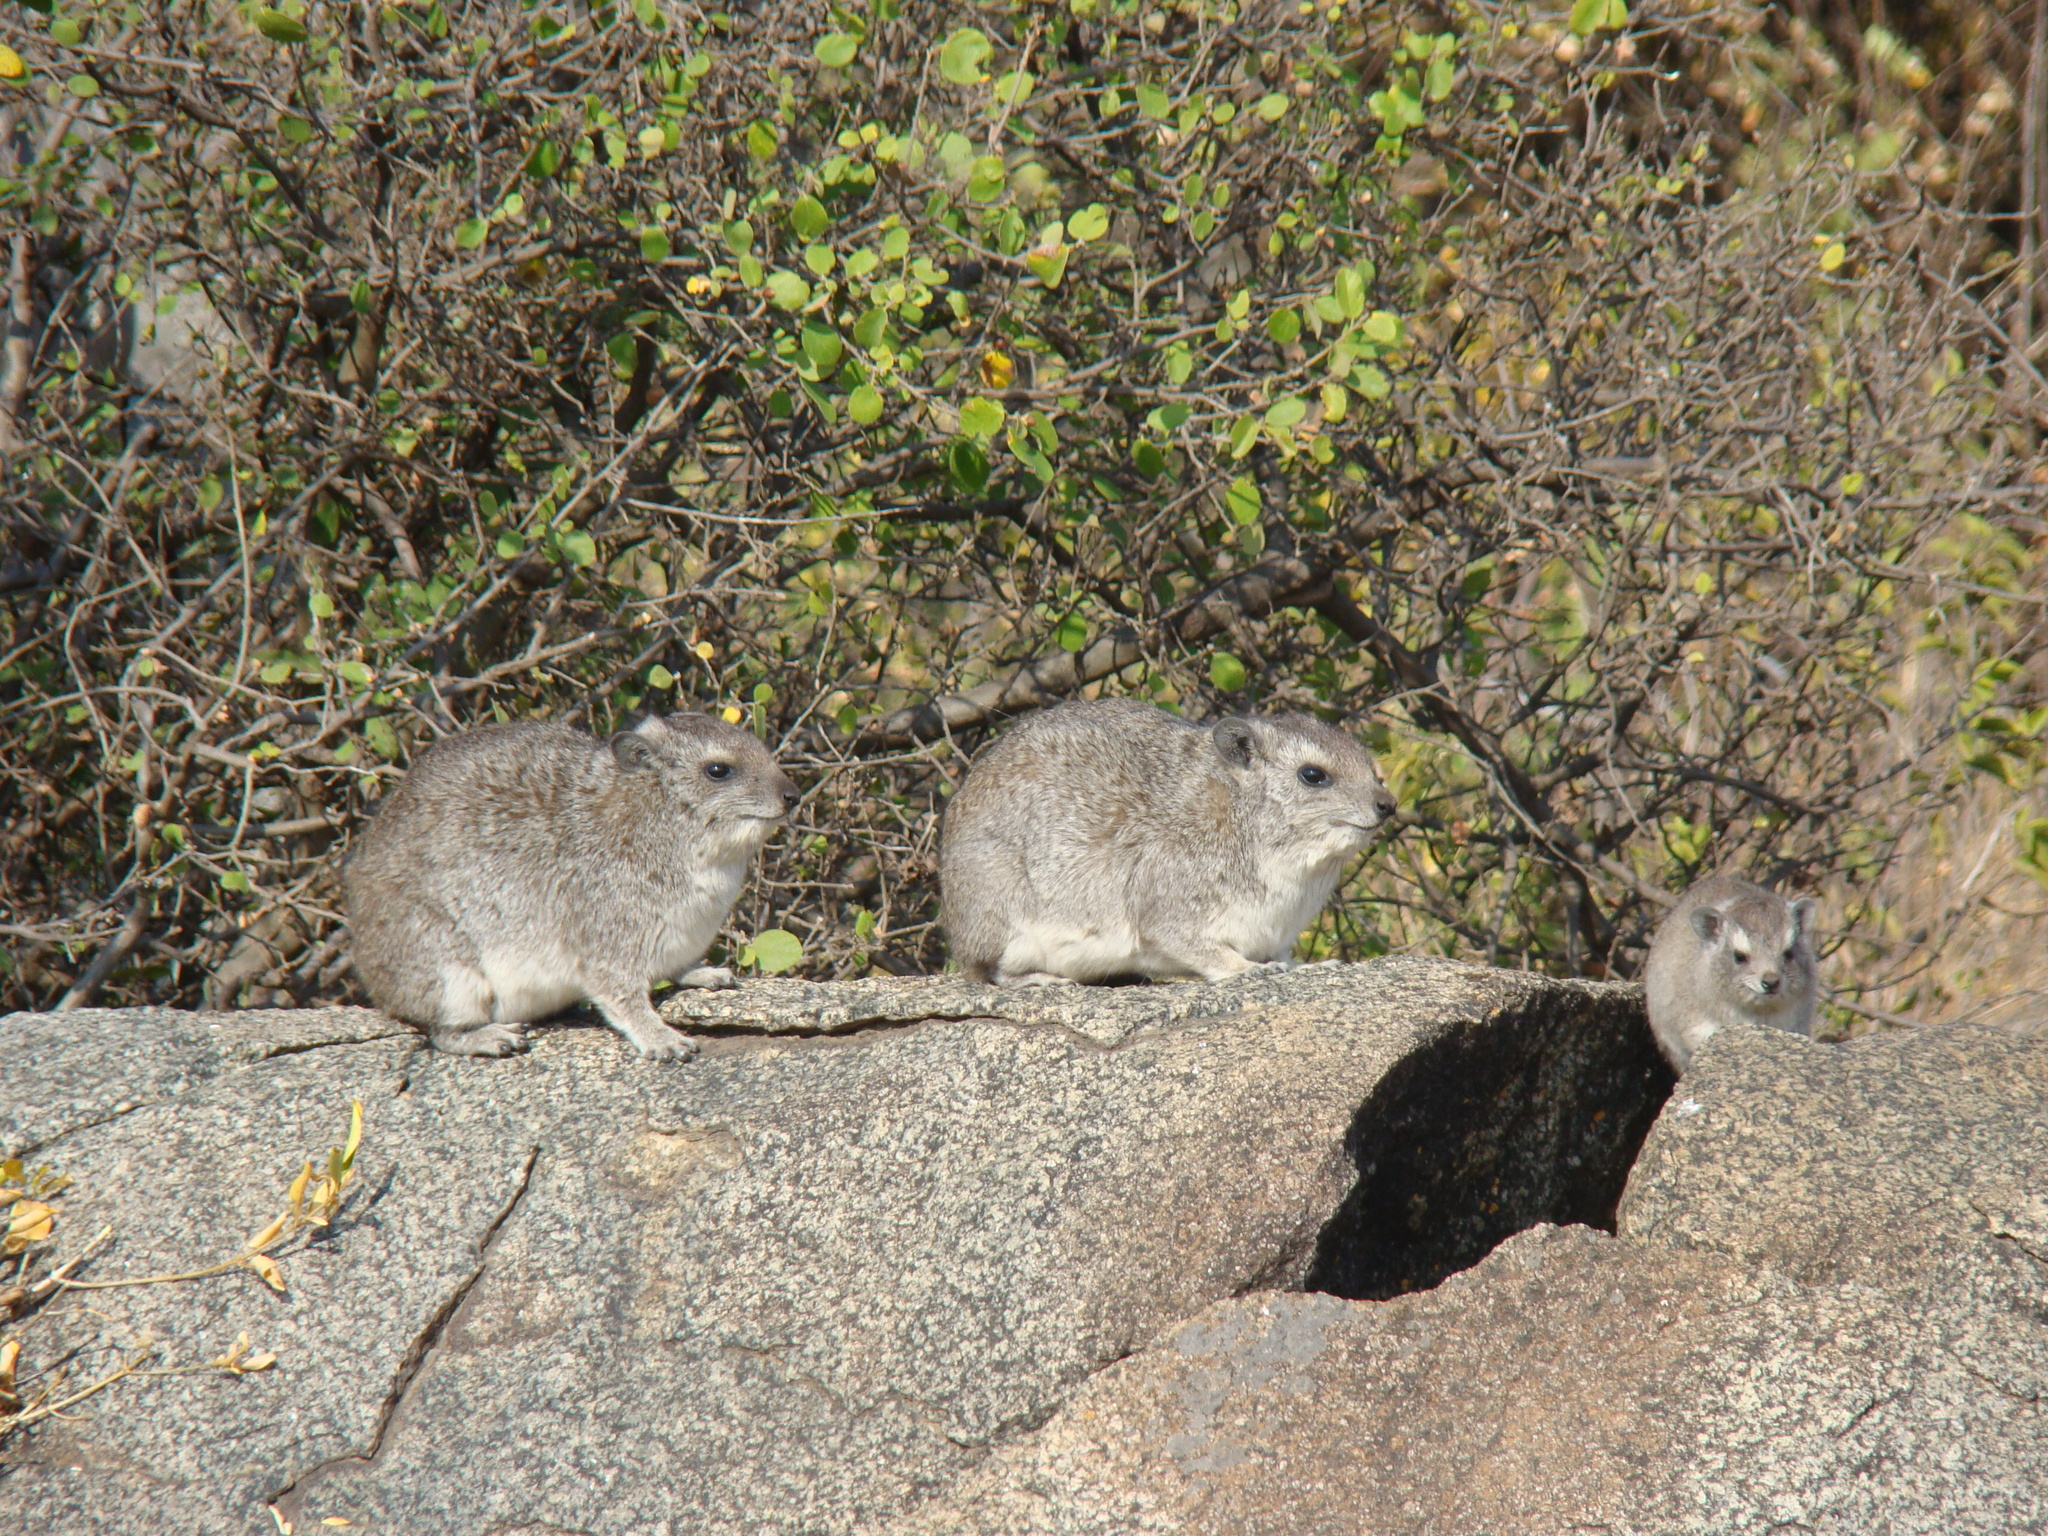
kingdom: Animalia
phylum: Chordata
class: Mammalia
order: Hyracoidea
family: Procaviidae
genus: Heterohyrax
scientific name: Heterohyrax brucei
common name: Bush hyrax
